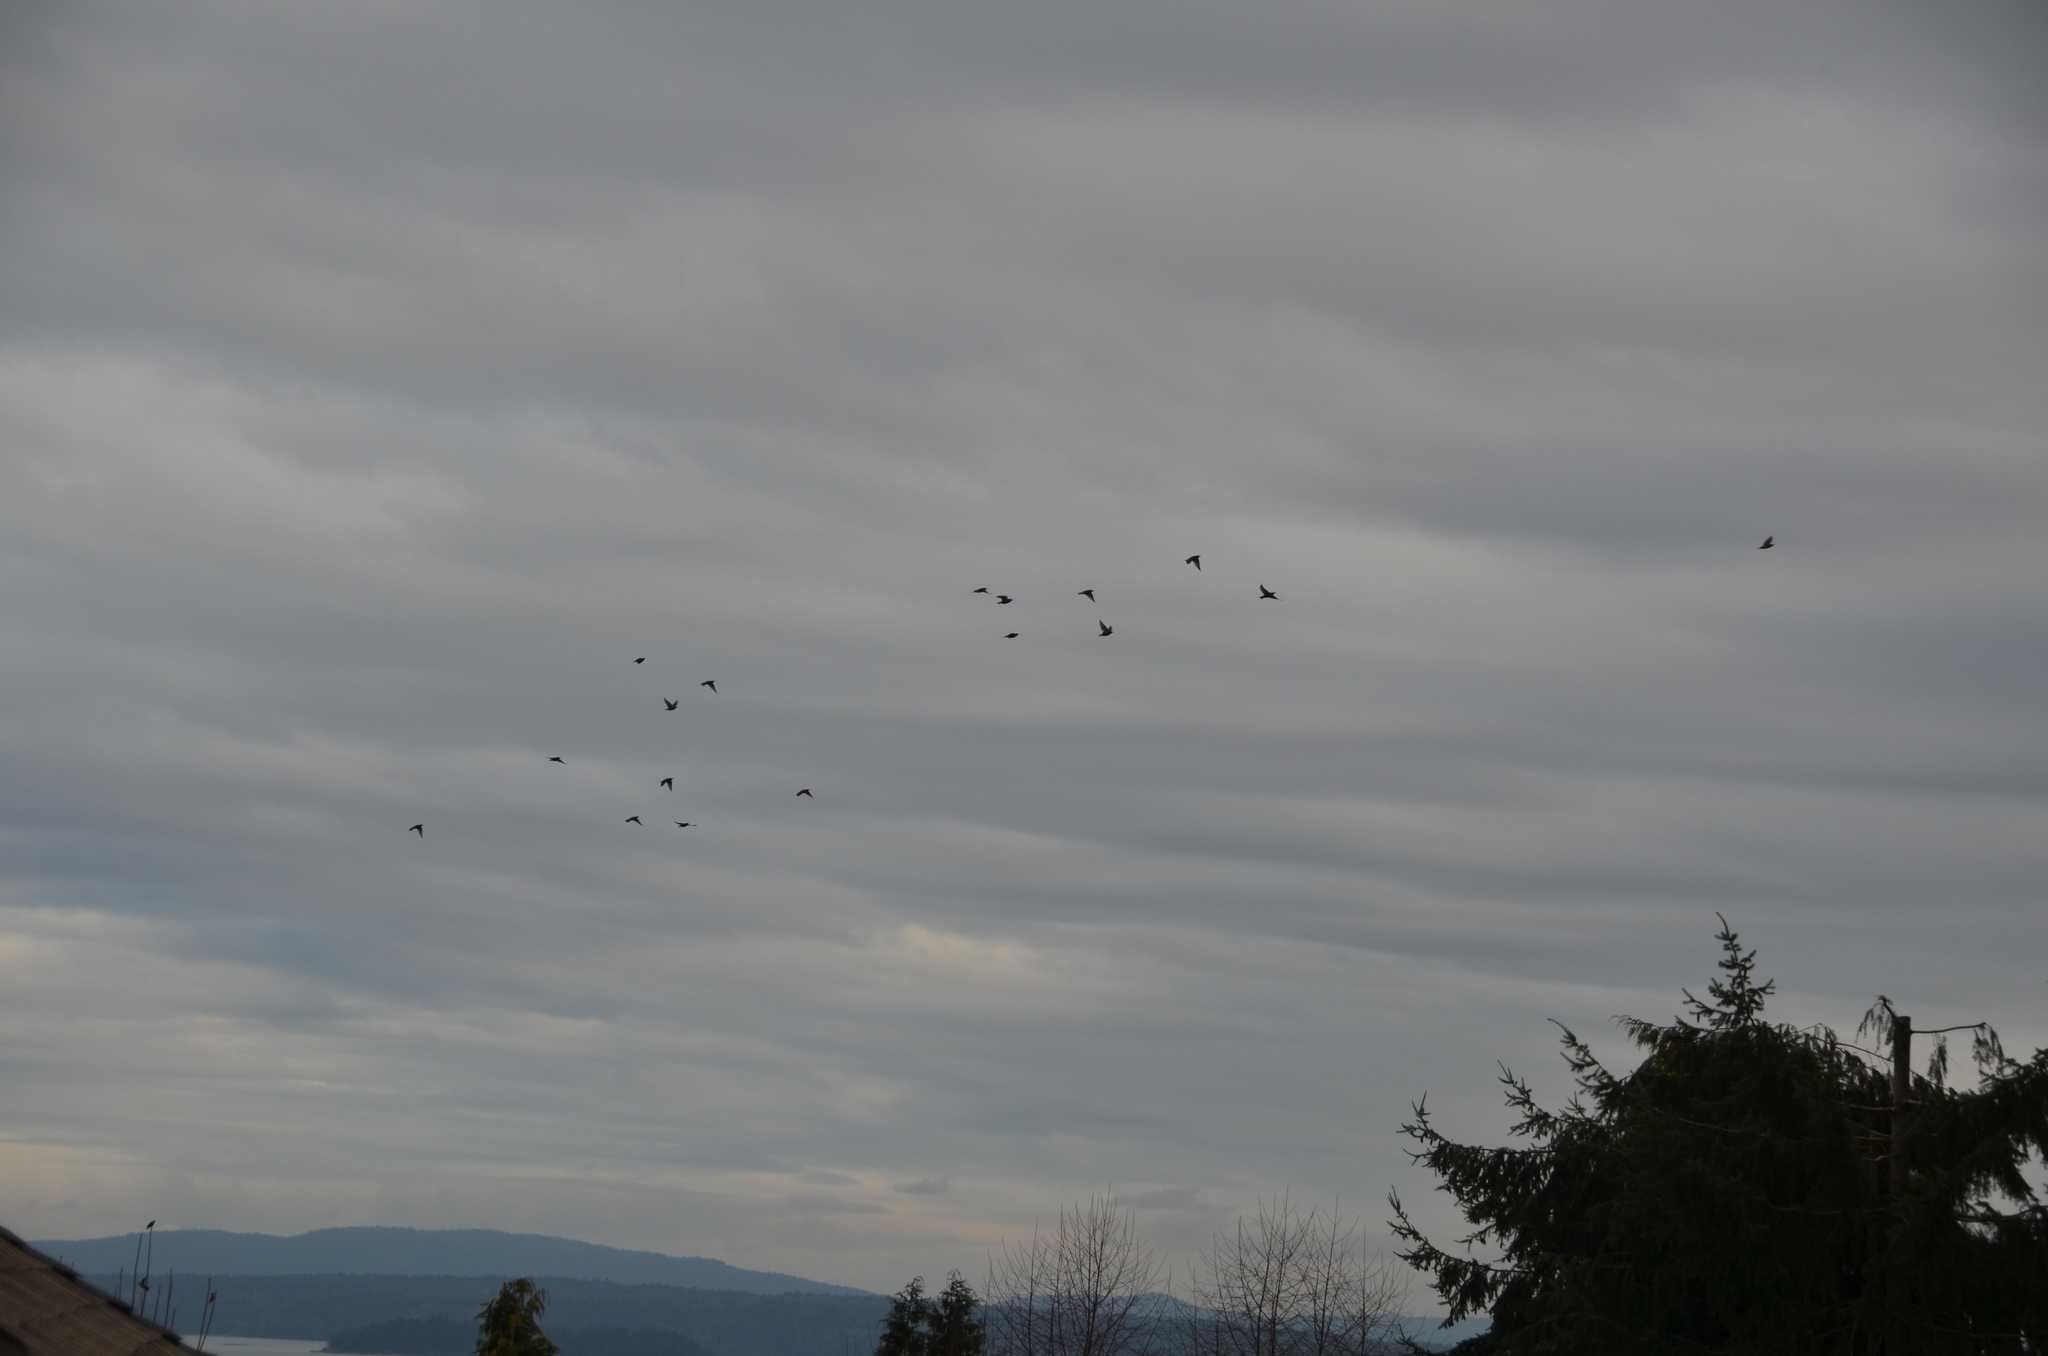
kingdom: Animalia
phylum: Chordata
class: Aves
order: Passeriformes
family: Sturnidae
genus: Sturnus
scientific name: Sturnus vulgaris
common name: Common starling
